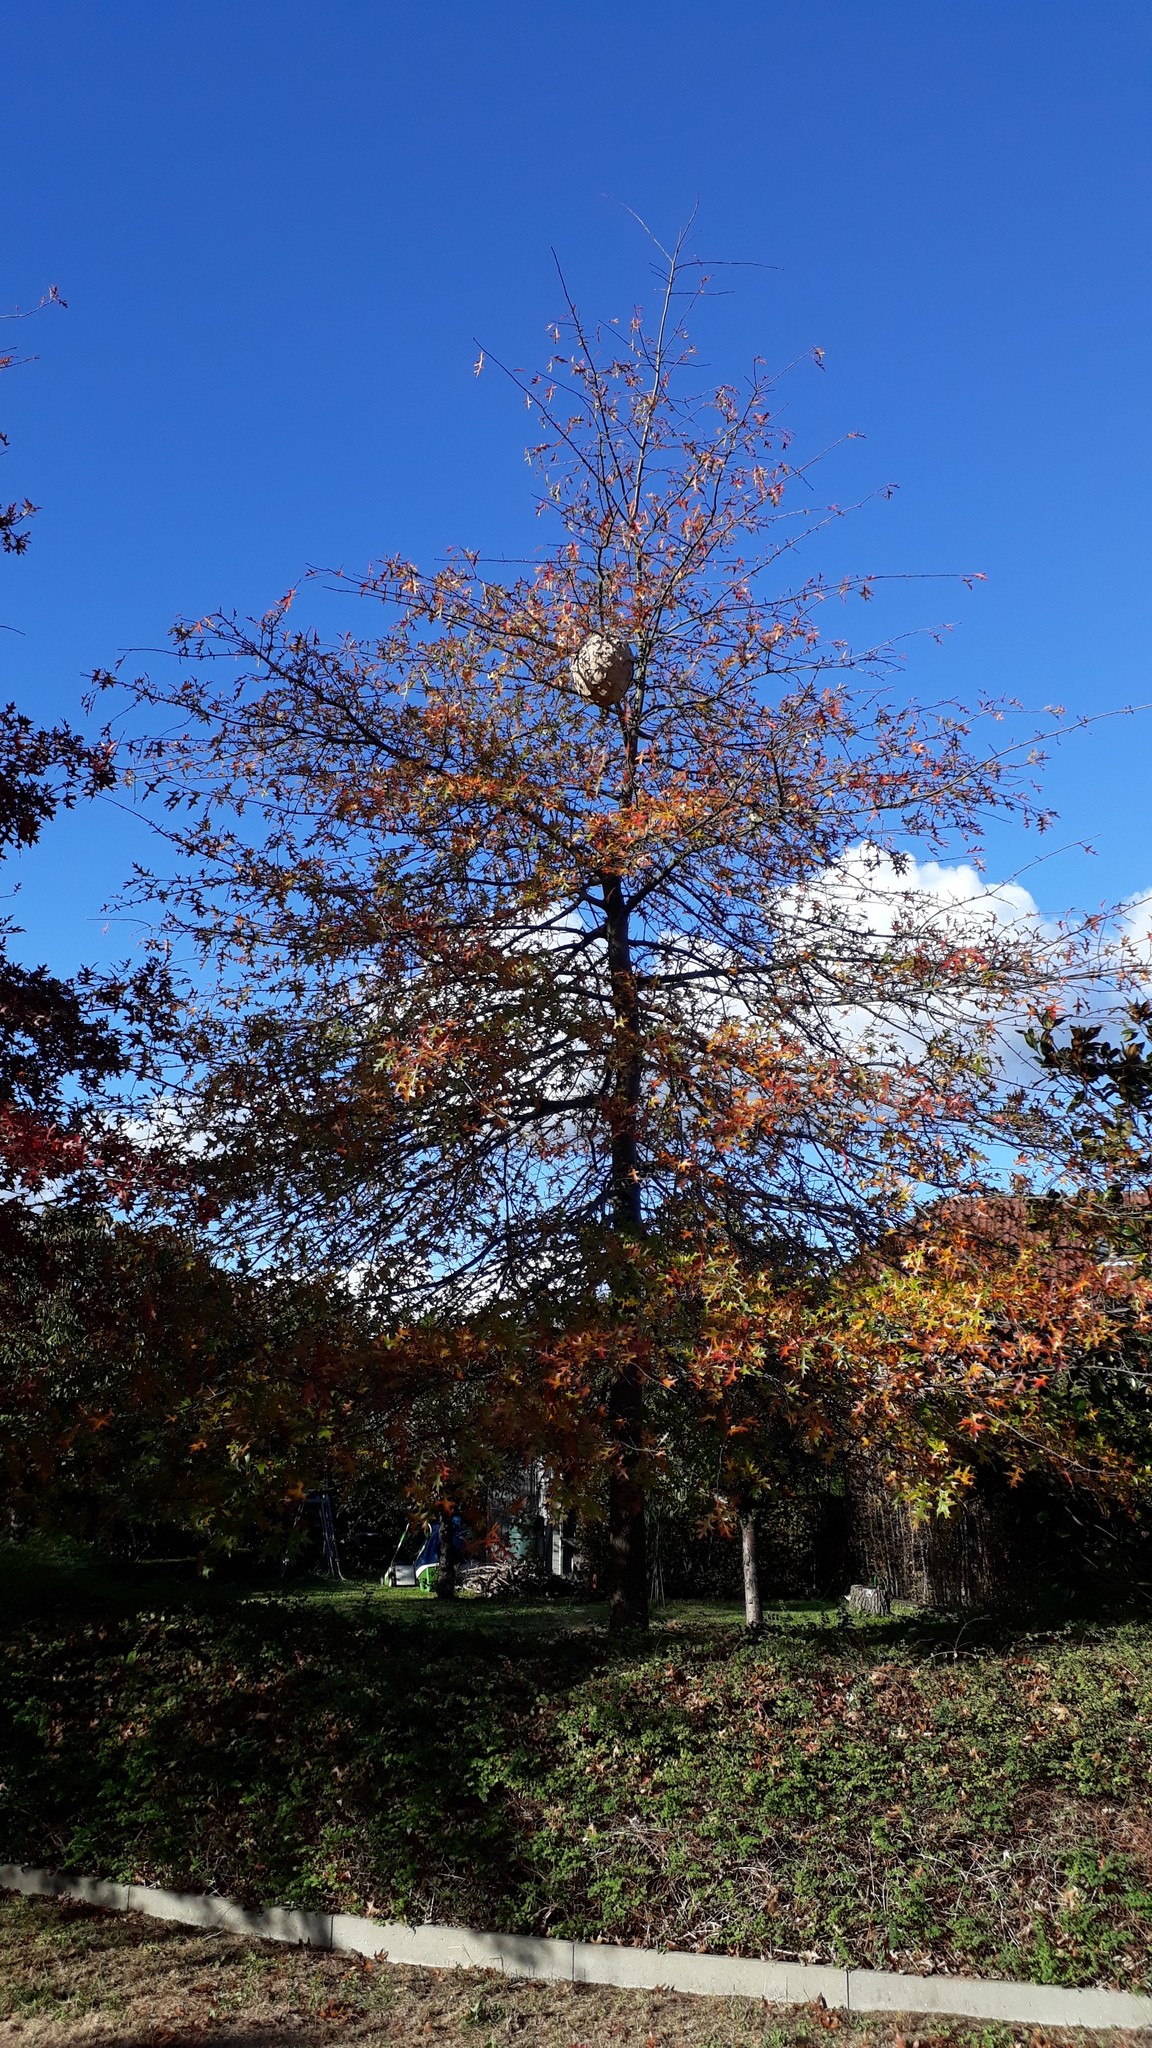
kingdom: Animalia
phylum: Arthropoda
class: Insecta
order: Hymenoptera
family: Vespidae
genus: Vespa
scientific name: Vespa velutina
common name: Asian hornet
